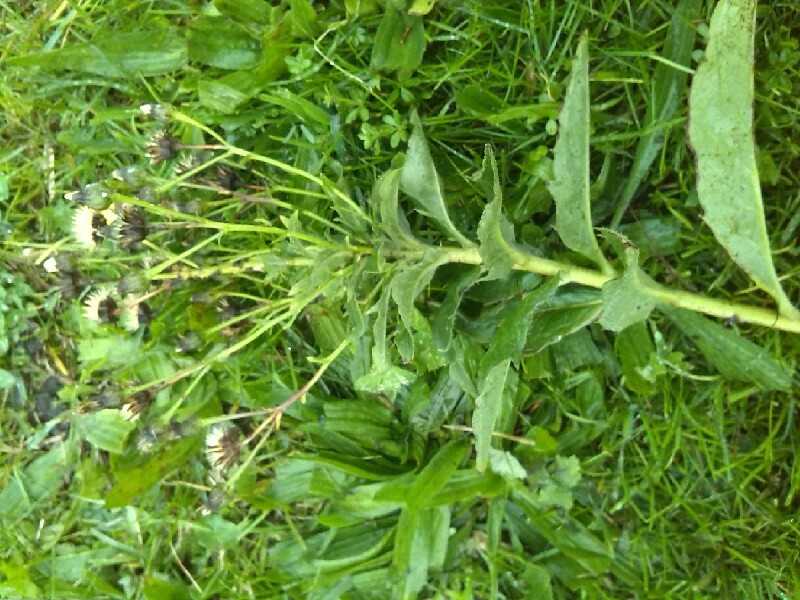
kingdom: Plantae
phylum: Tracheophyta
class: Magnoliopsida
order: Asterales
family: Asteraceae
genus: Hieracium
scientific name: Hieracium sabaudum
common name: New england hawkweed
